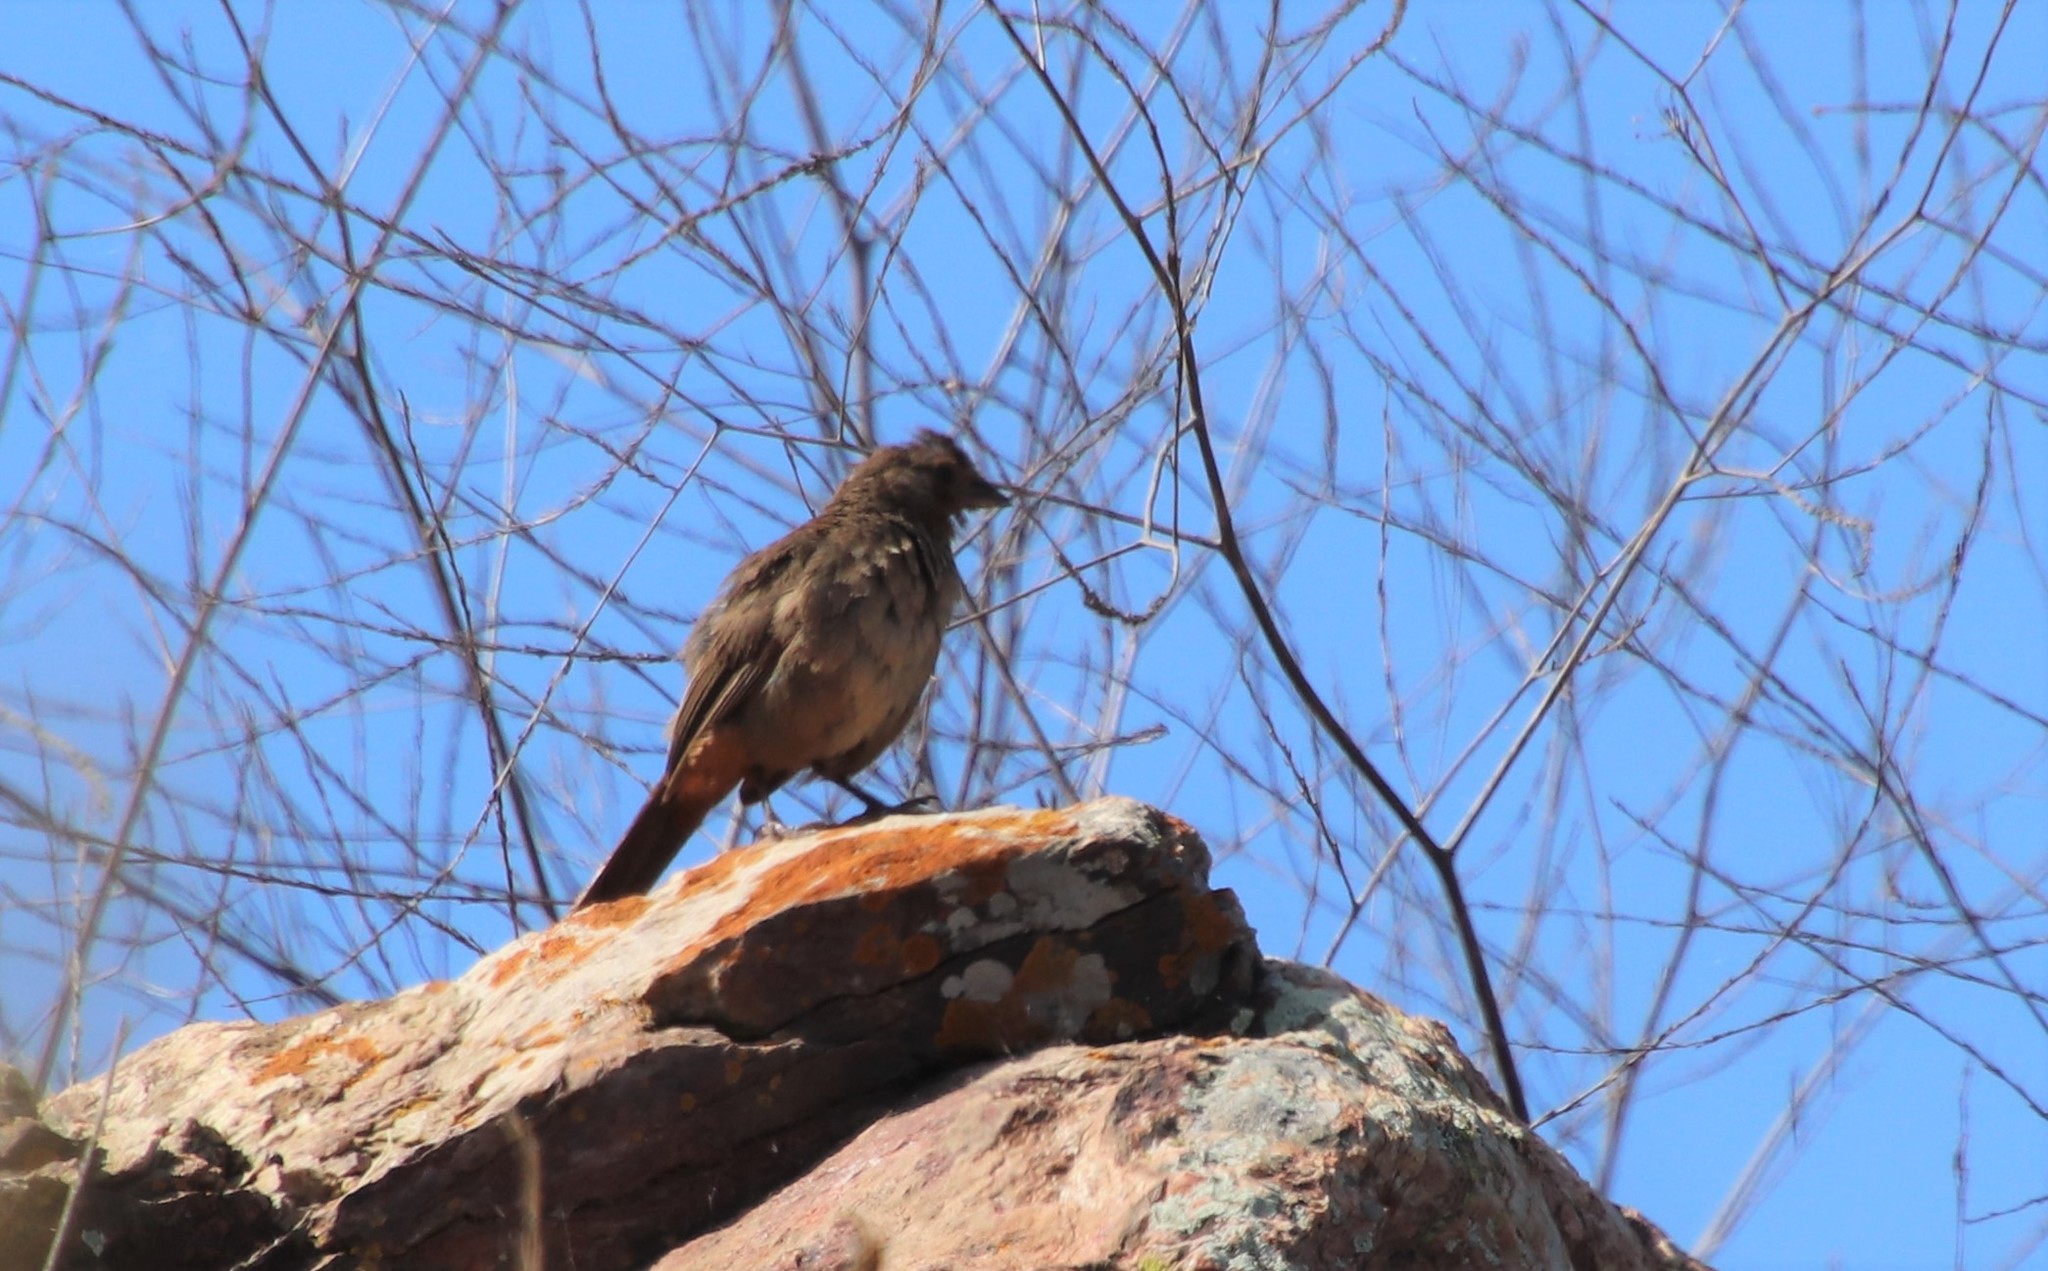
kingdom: Animalia
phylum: Chordata
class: Aves
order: Passeriformes
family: Passerellidae
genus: Melozone
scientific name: Melozone crissalis
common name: California towhee
